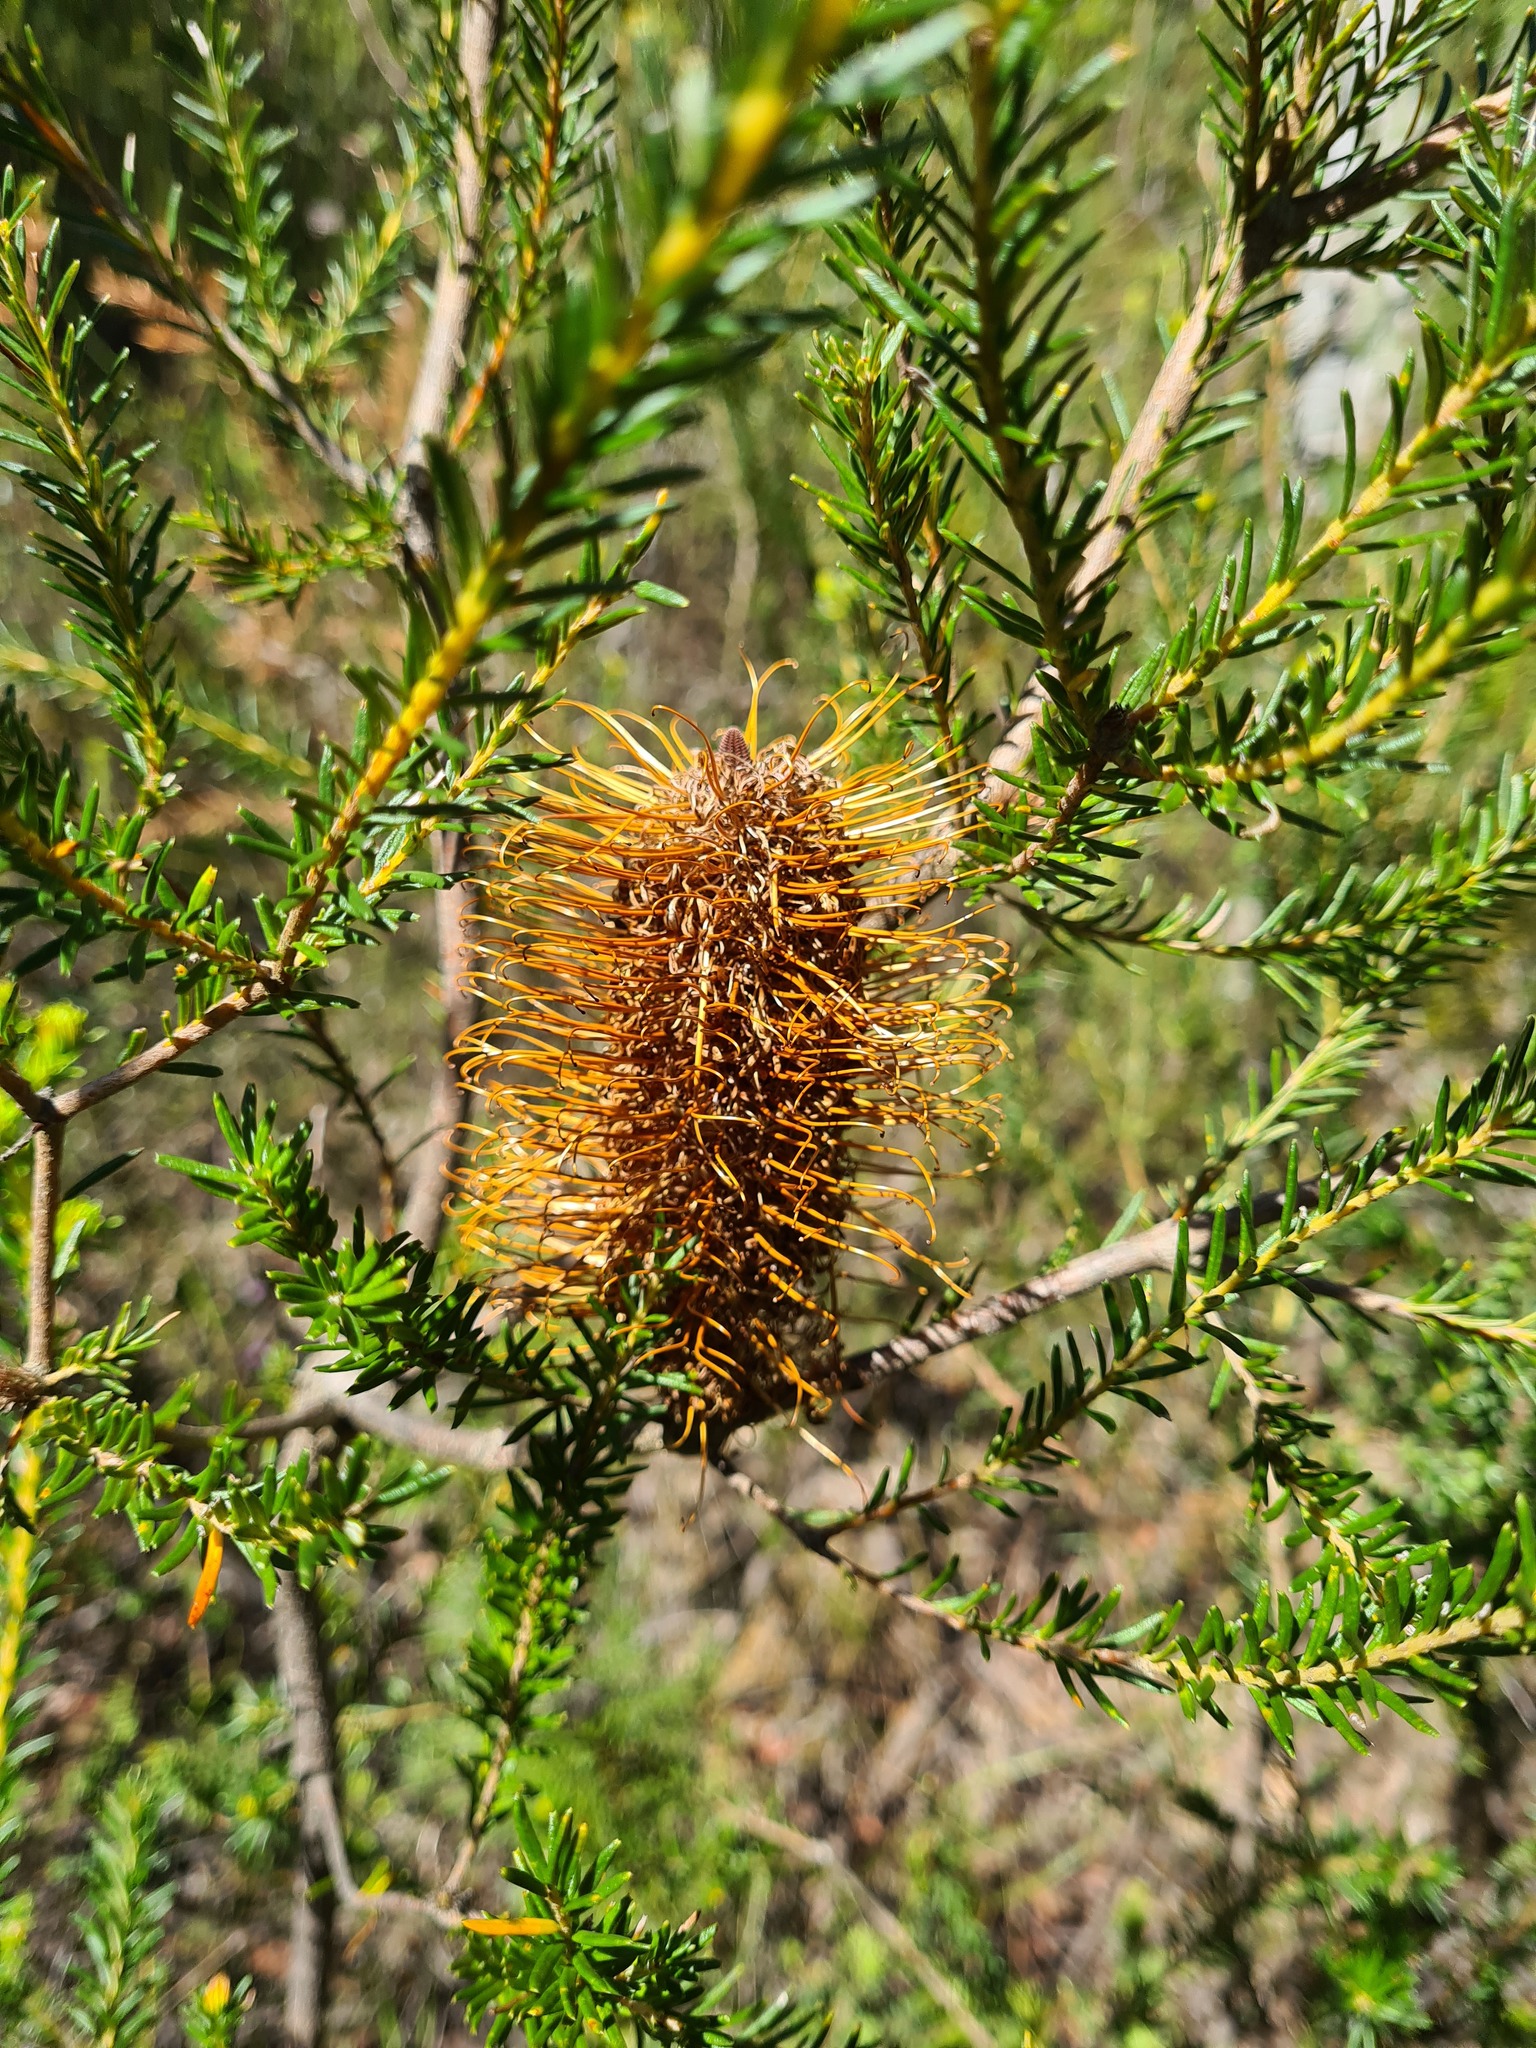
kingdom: Plantae
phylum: Tracheophyta
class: Magnoliopsida
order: Proteales
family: Proteaceae
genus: Banksia
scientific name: Banksia ericifolia
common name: Heath-leaf banksia
